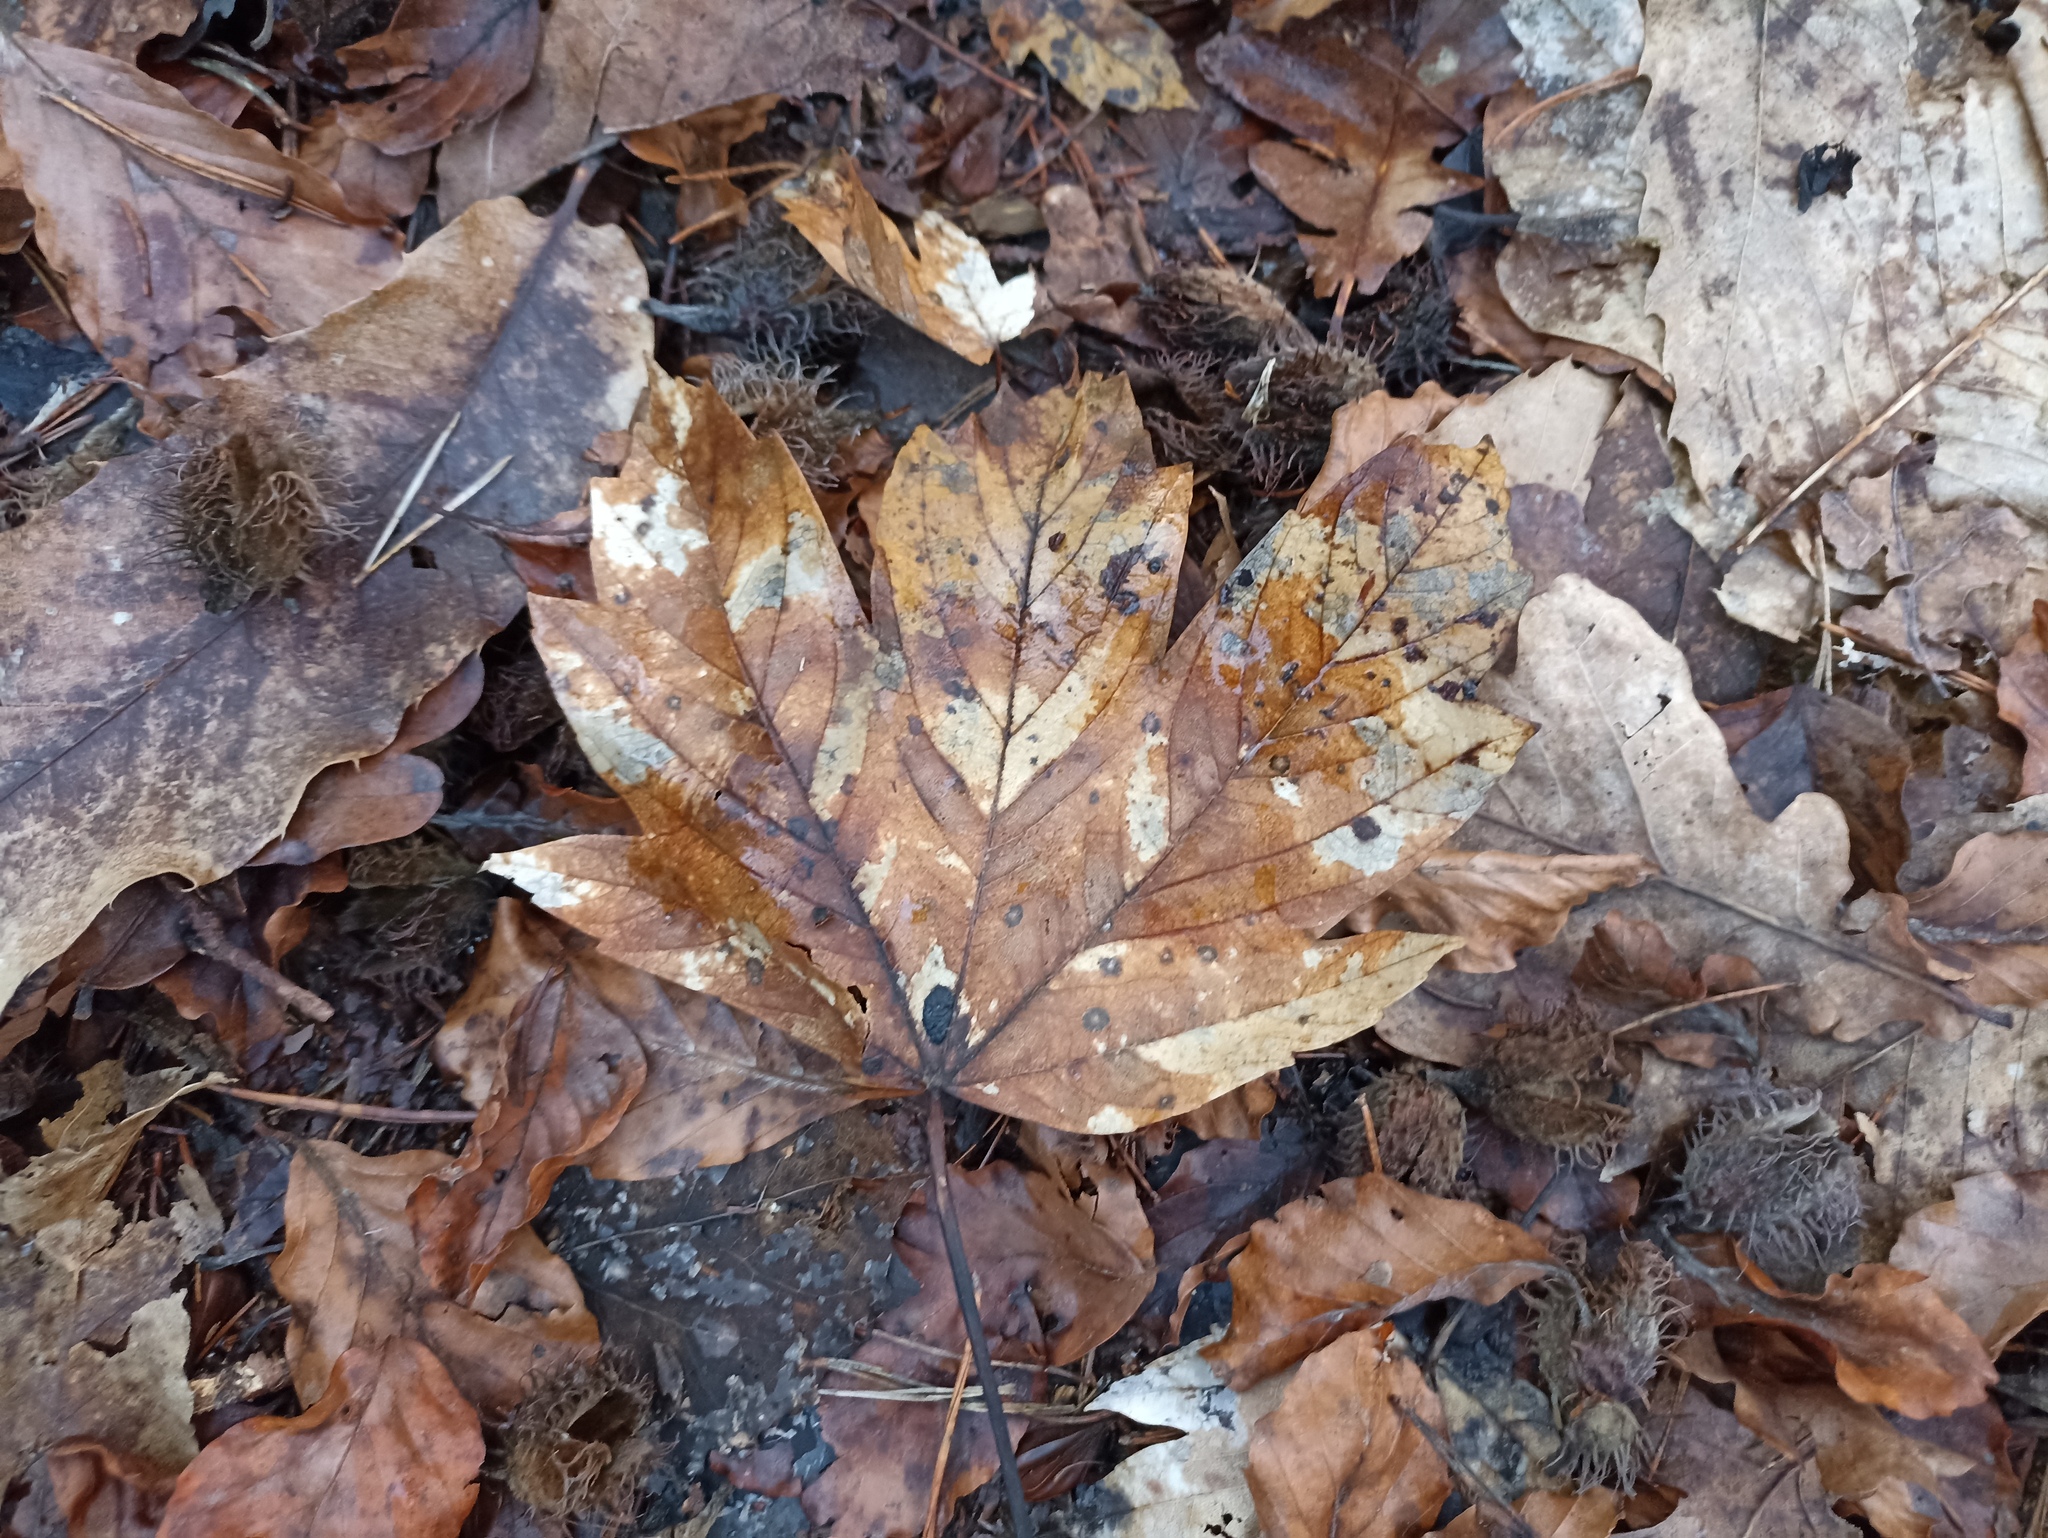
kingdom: Plantae
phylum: Tracheophyta
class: Magnoliopsida
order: Sapindales
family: Sapindaceae
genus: Acer
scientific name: Acer pseudoplatanus
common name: Sycamore
